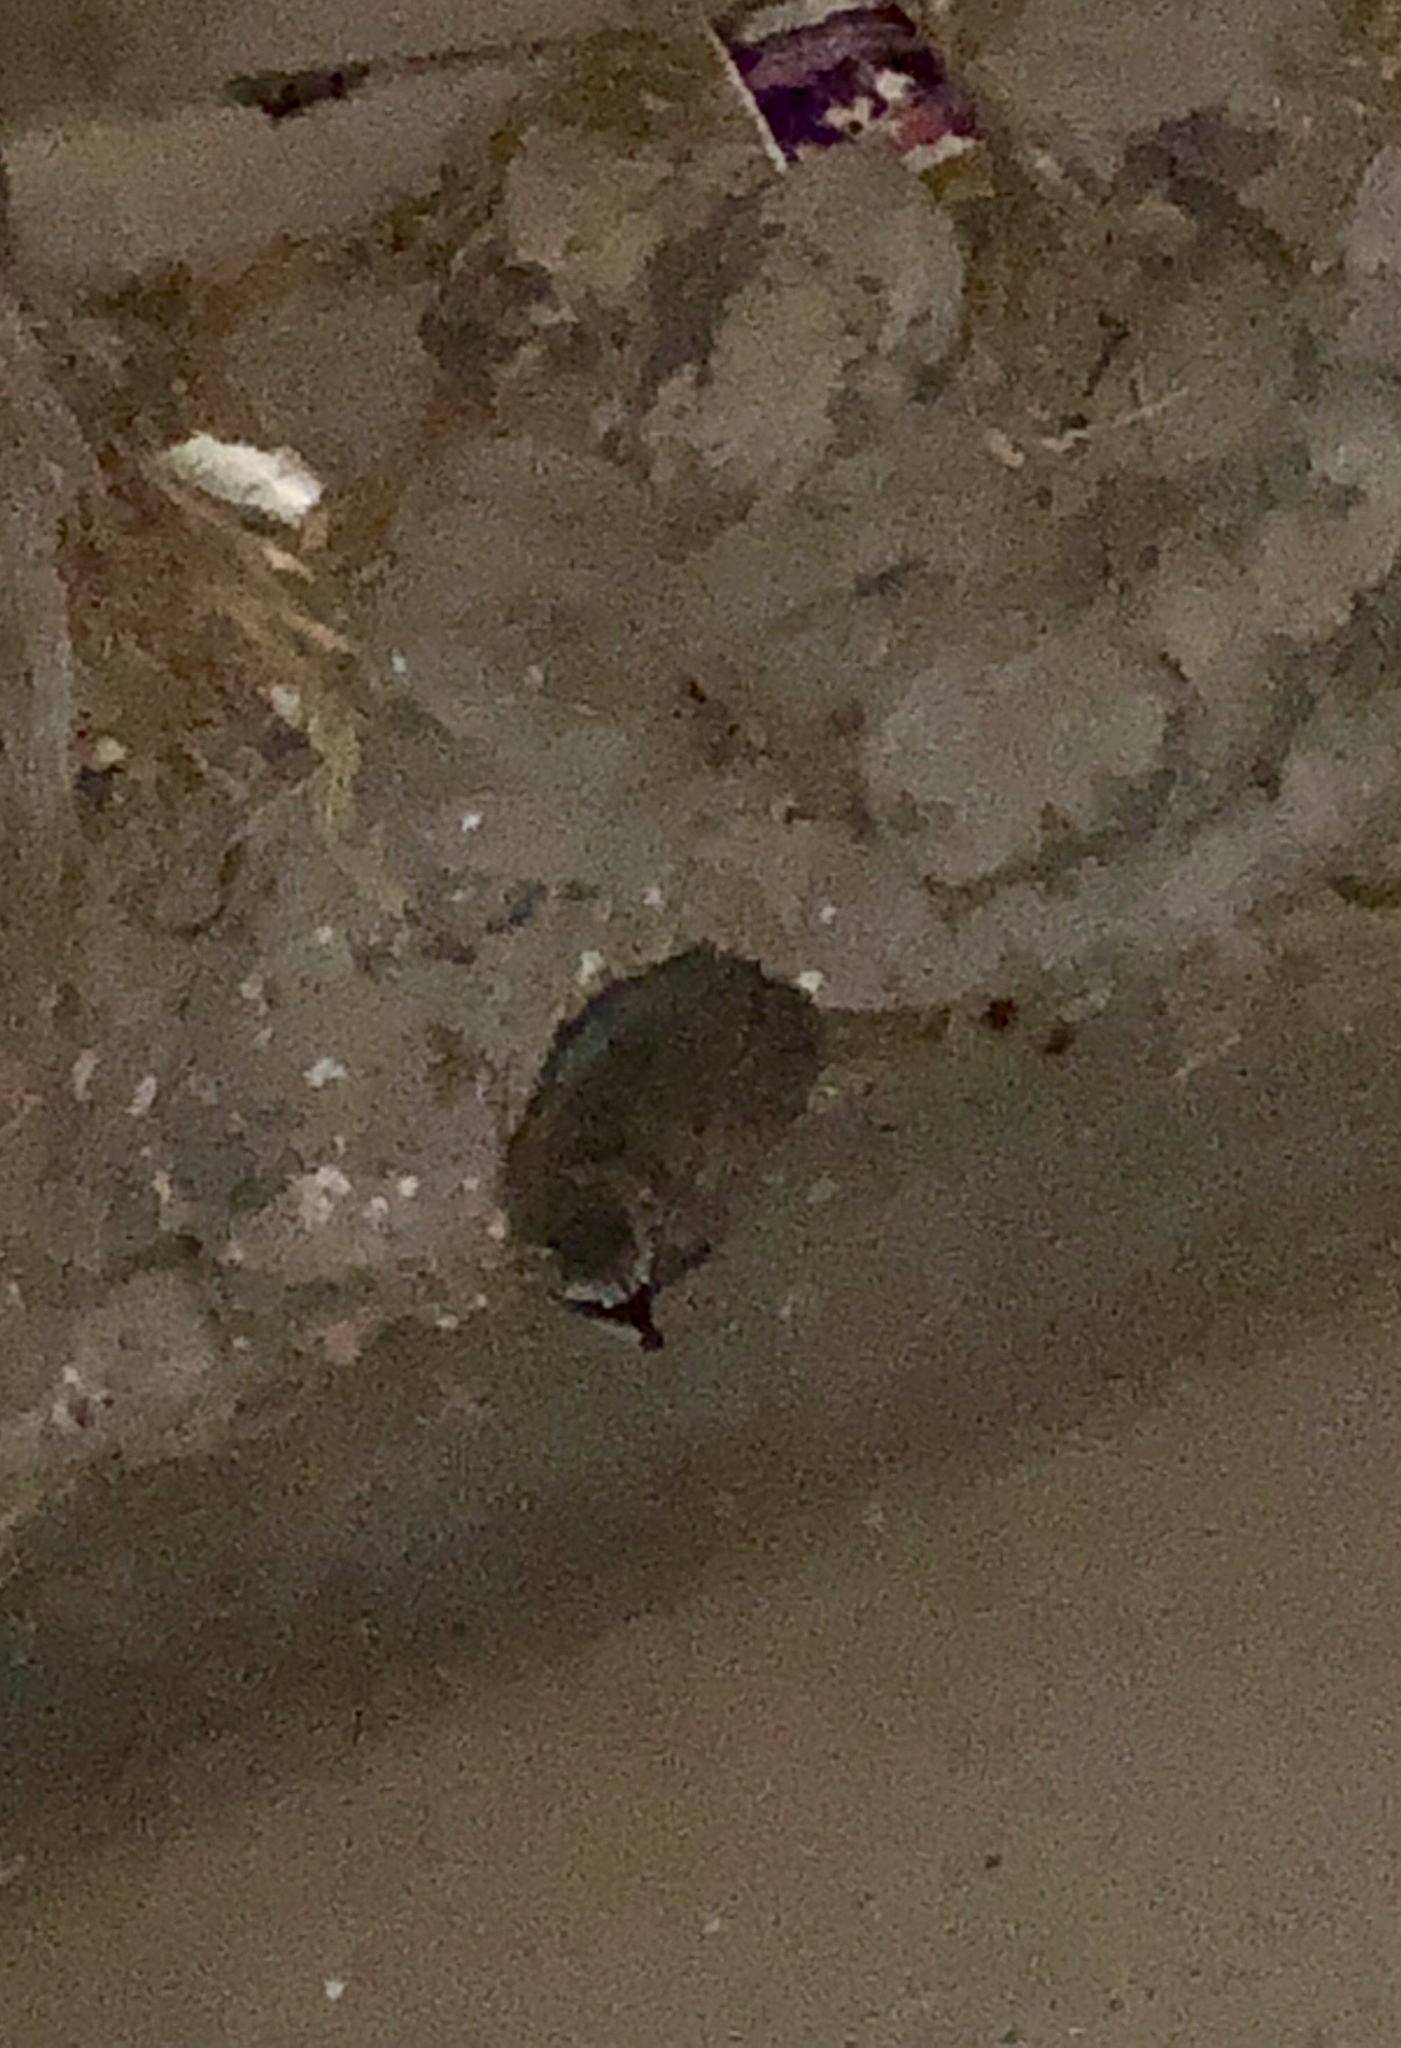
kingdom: Animalia
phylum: Chordata
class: Mammalia
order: Carnivora
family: Procyonidae
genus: Procyon
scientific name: Procyon lotor
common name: Raccoon
